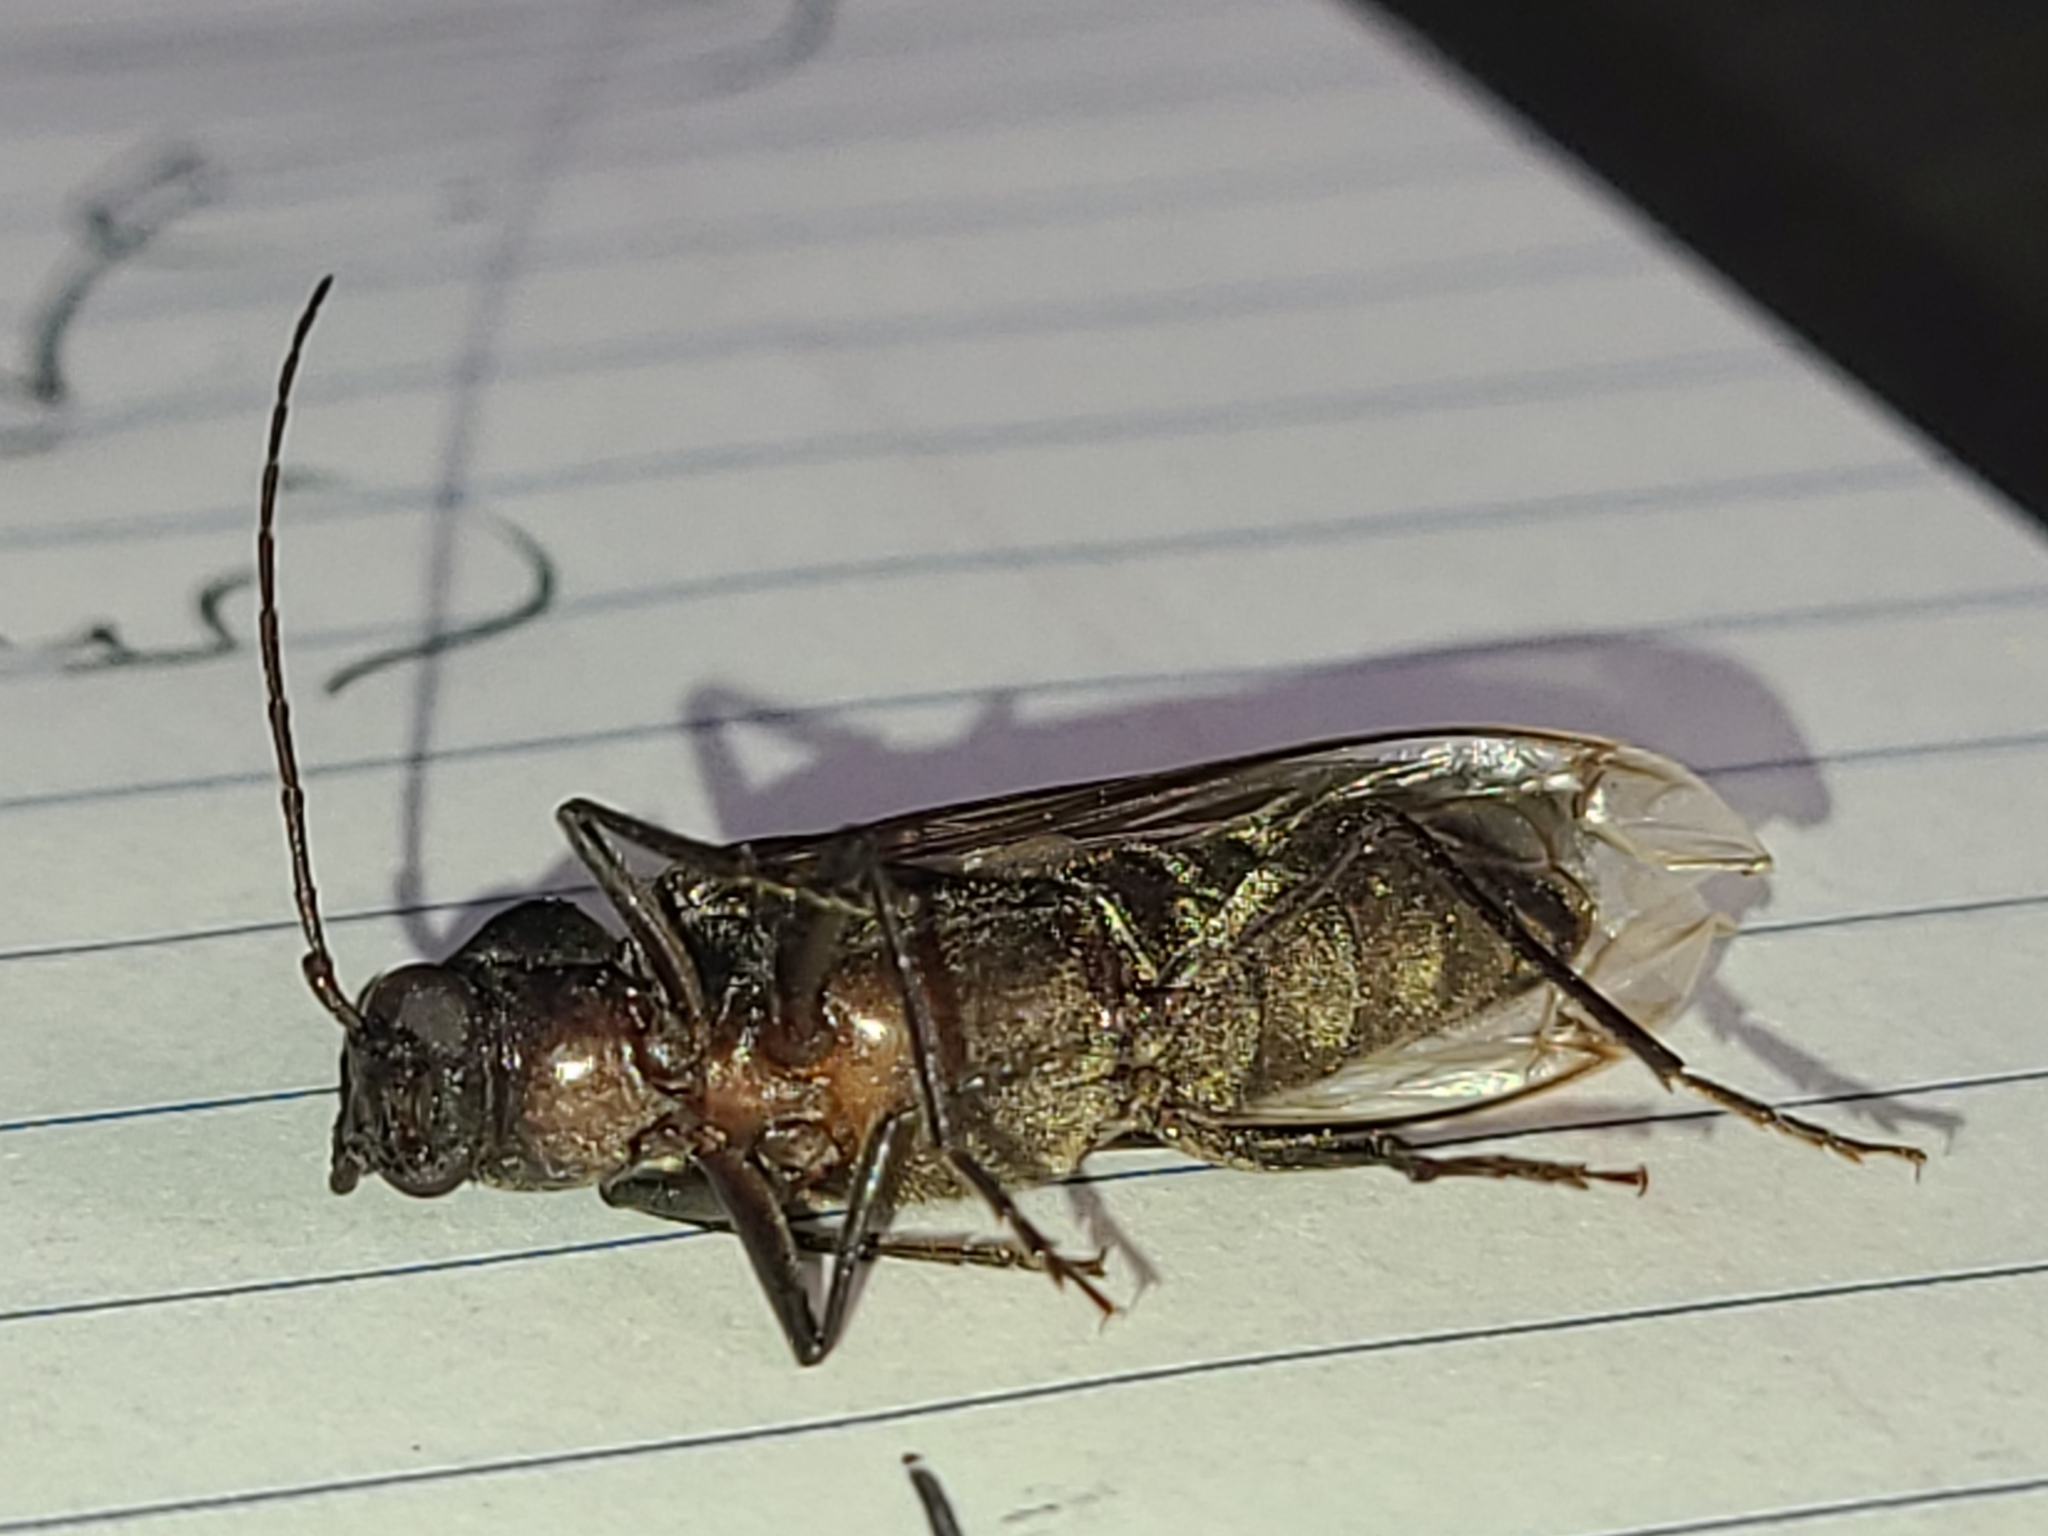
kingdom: Animalia
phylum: Arthropoda
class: Insecta
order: Coleoptera
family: Cerambycidae
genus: Arhopalus
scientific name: Arhopalus productus
